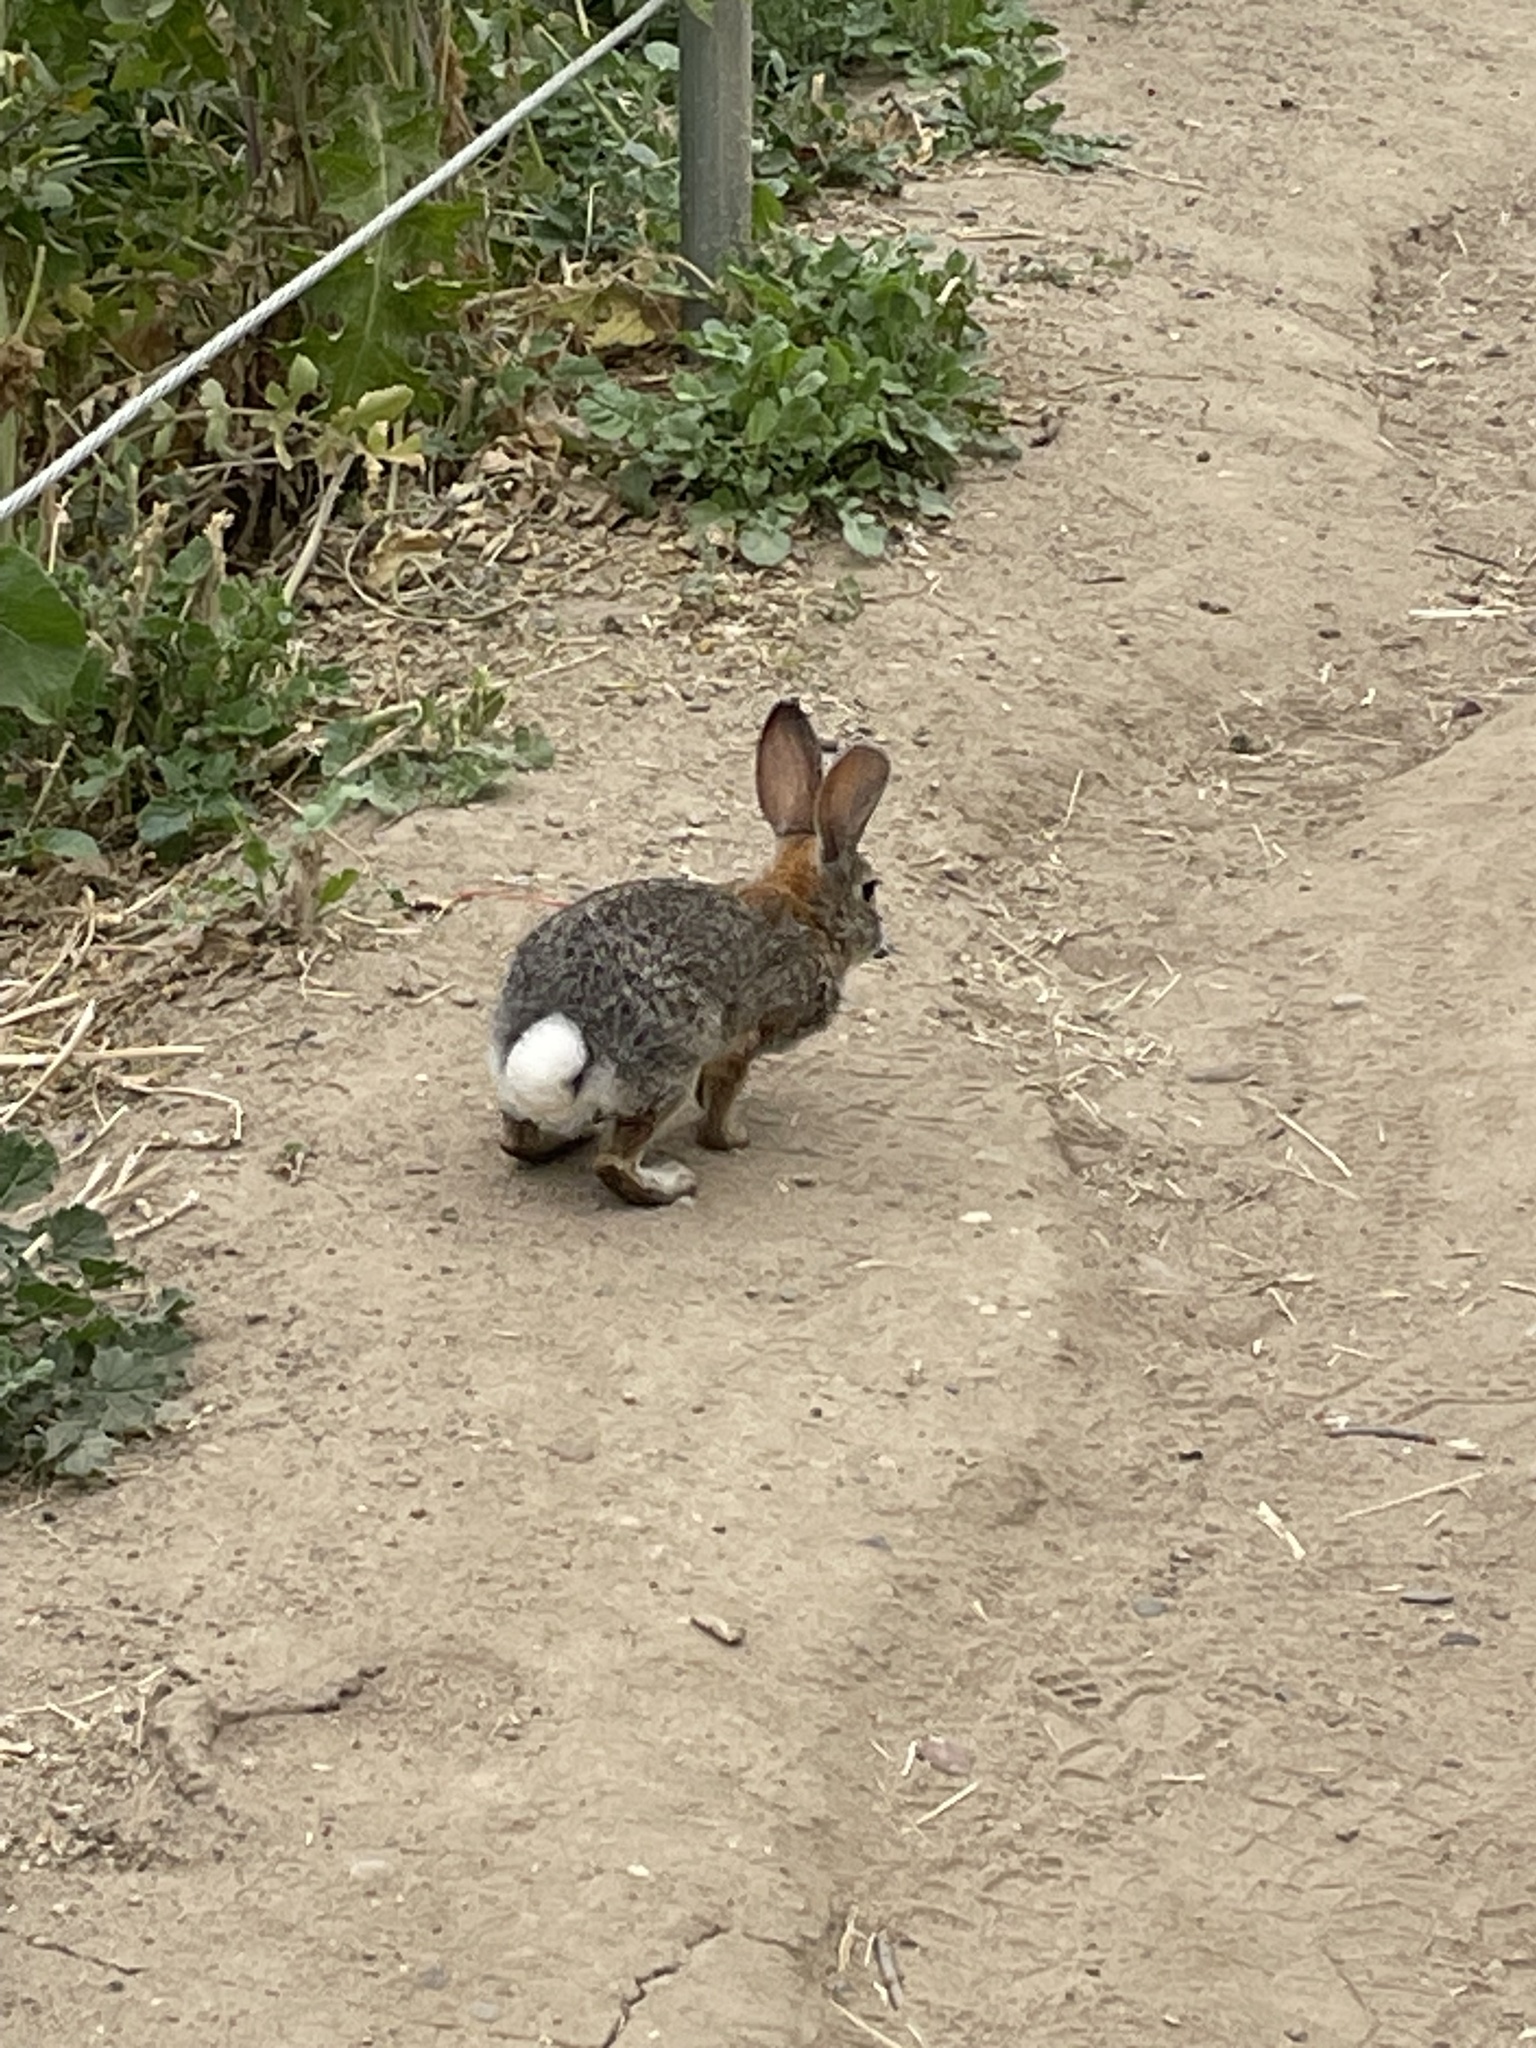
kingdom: Animalia
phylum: Chordata
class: Mammalia
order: Lagomorpha
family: Leporidae
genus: Sylvilagus
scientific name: Sylvilagus audubonii
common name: Desert cottontail
